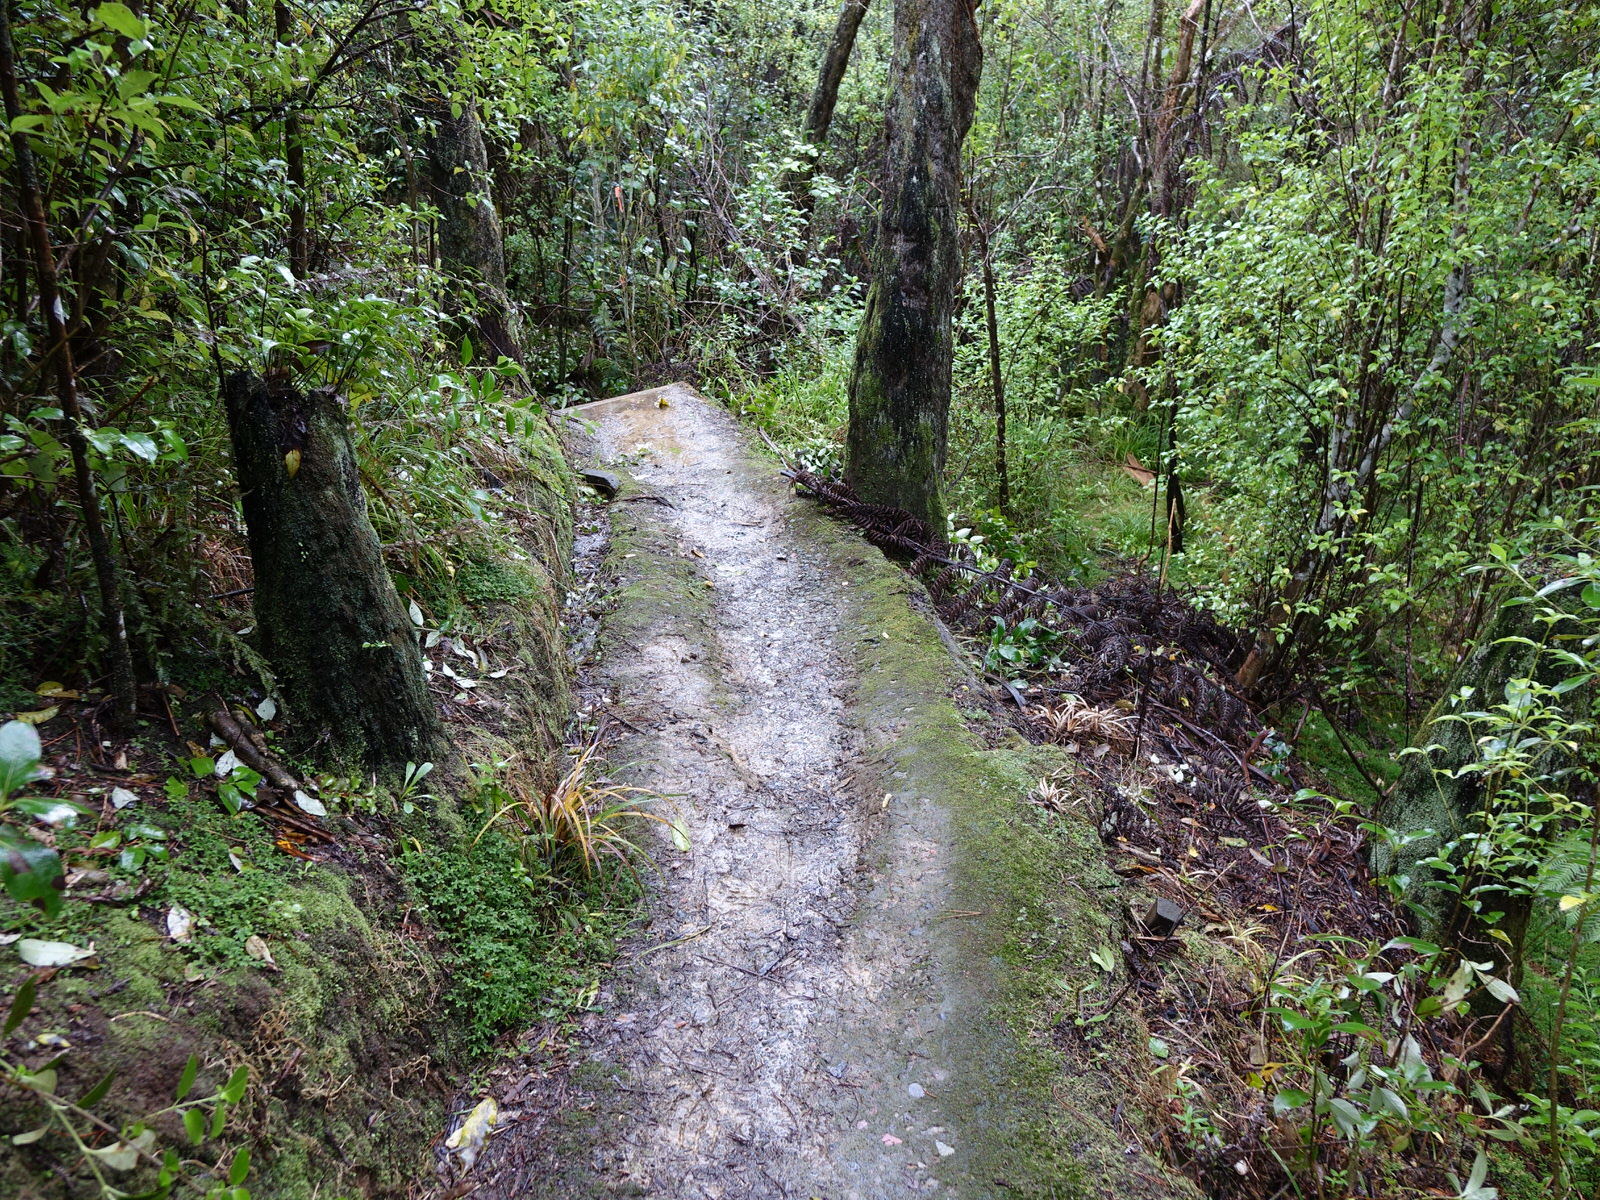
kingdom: Plantae
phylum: Tracheophyta
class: Lycopodiopsida
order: Selaginellales
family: Selaginellaceae
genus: Selaginella
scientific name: Selaginella kraussiana
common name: Krauss' spikemoss
